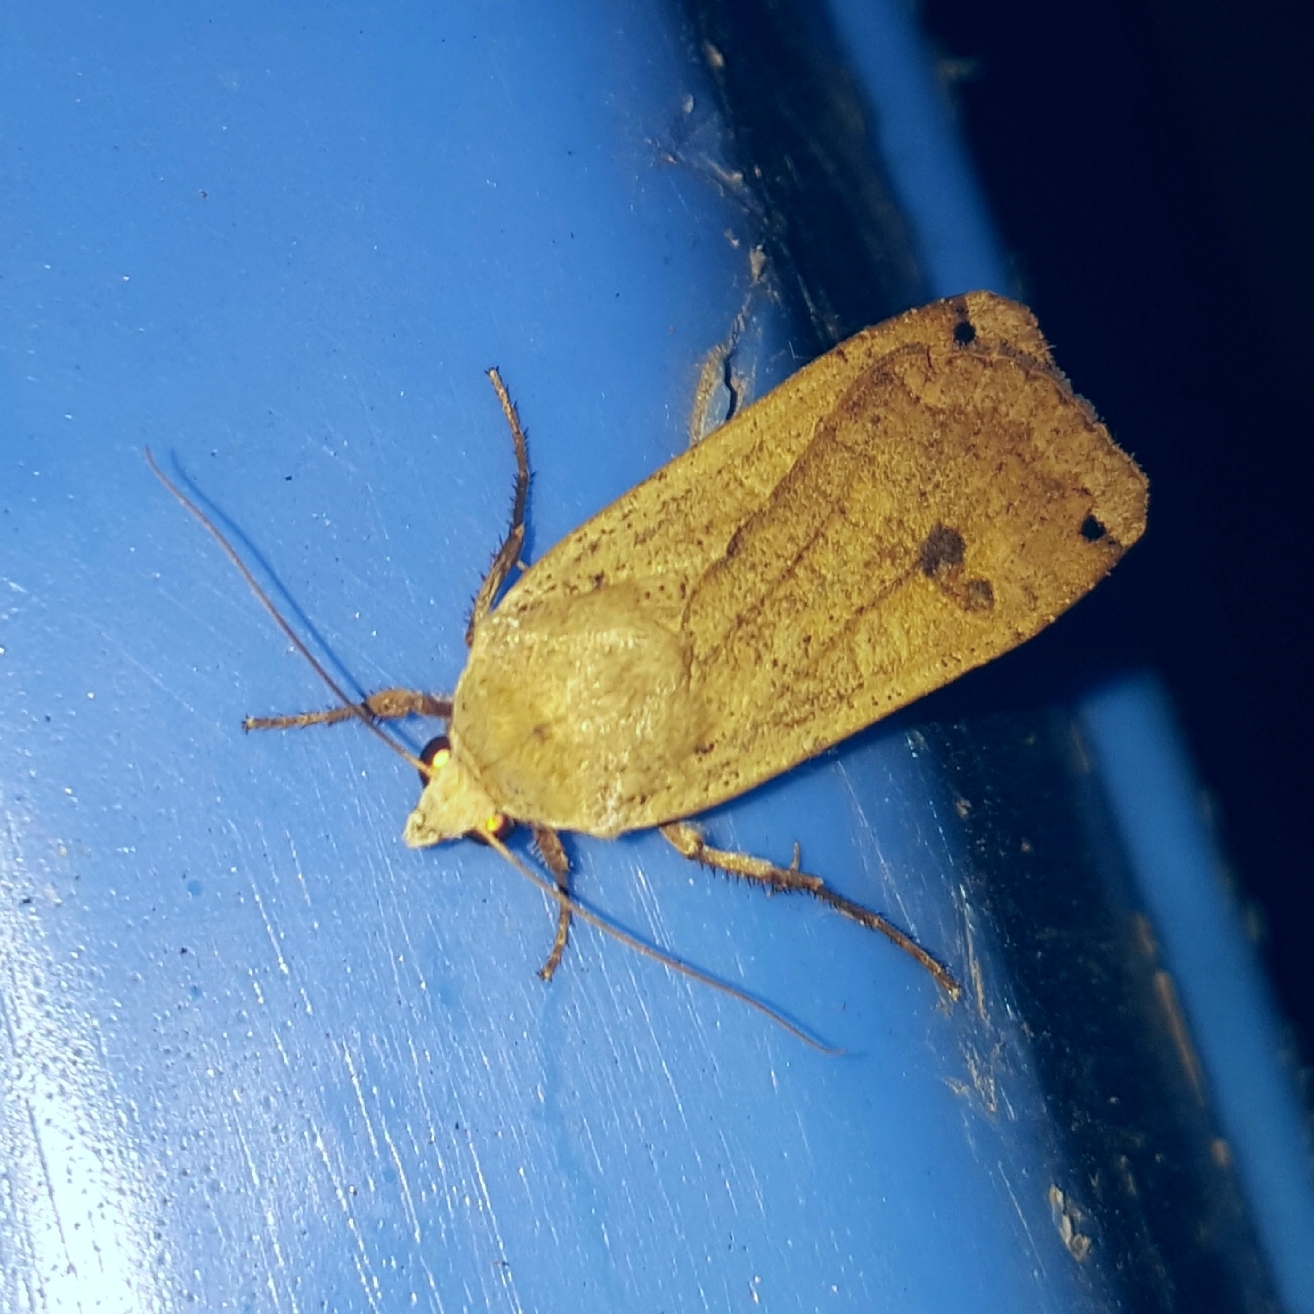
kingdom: Animalia
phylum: Arthropoda
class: Insecta
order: Lepidoptera
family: Noctuidae
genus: Noctua
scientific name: Noctua pronuba
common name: Large yellow underwing
